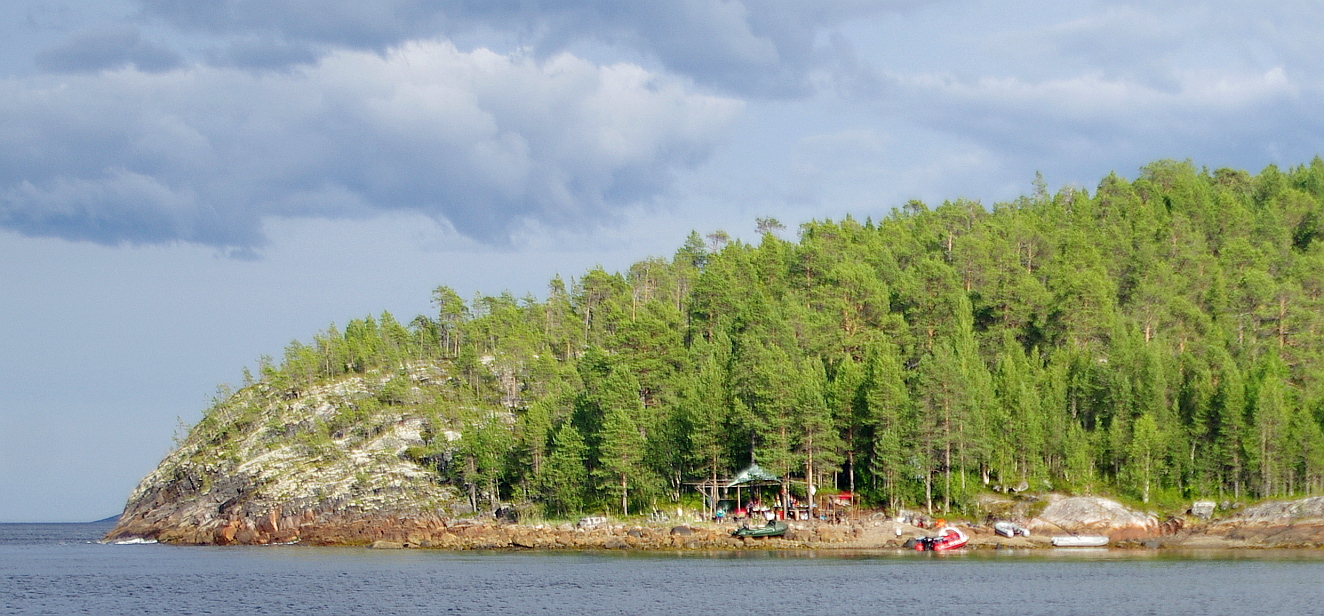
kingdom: Plantae
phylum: Tracheophyta
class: Pinopsida
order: Pinales
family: Pinaceae
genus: Pinus
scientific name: Pinus sylvestris
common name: Scots pine
